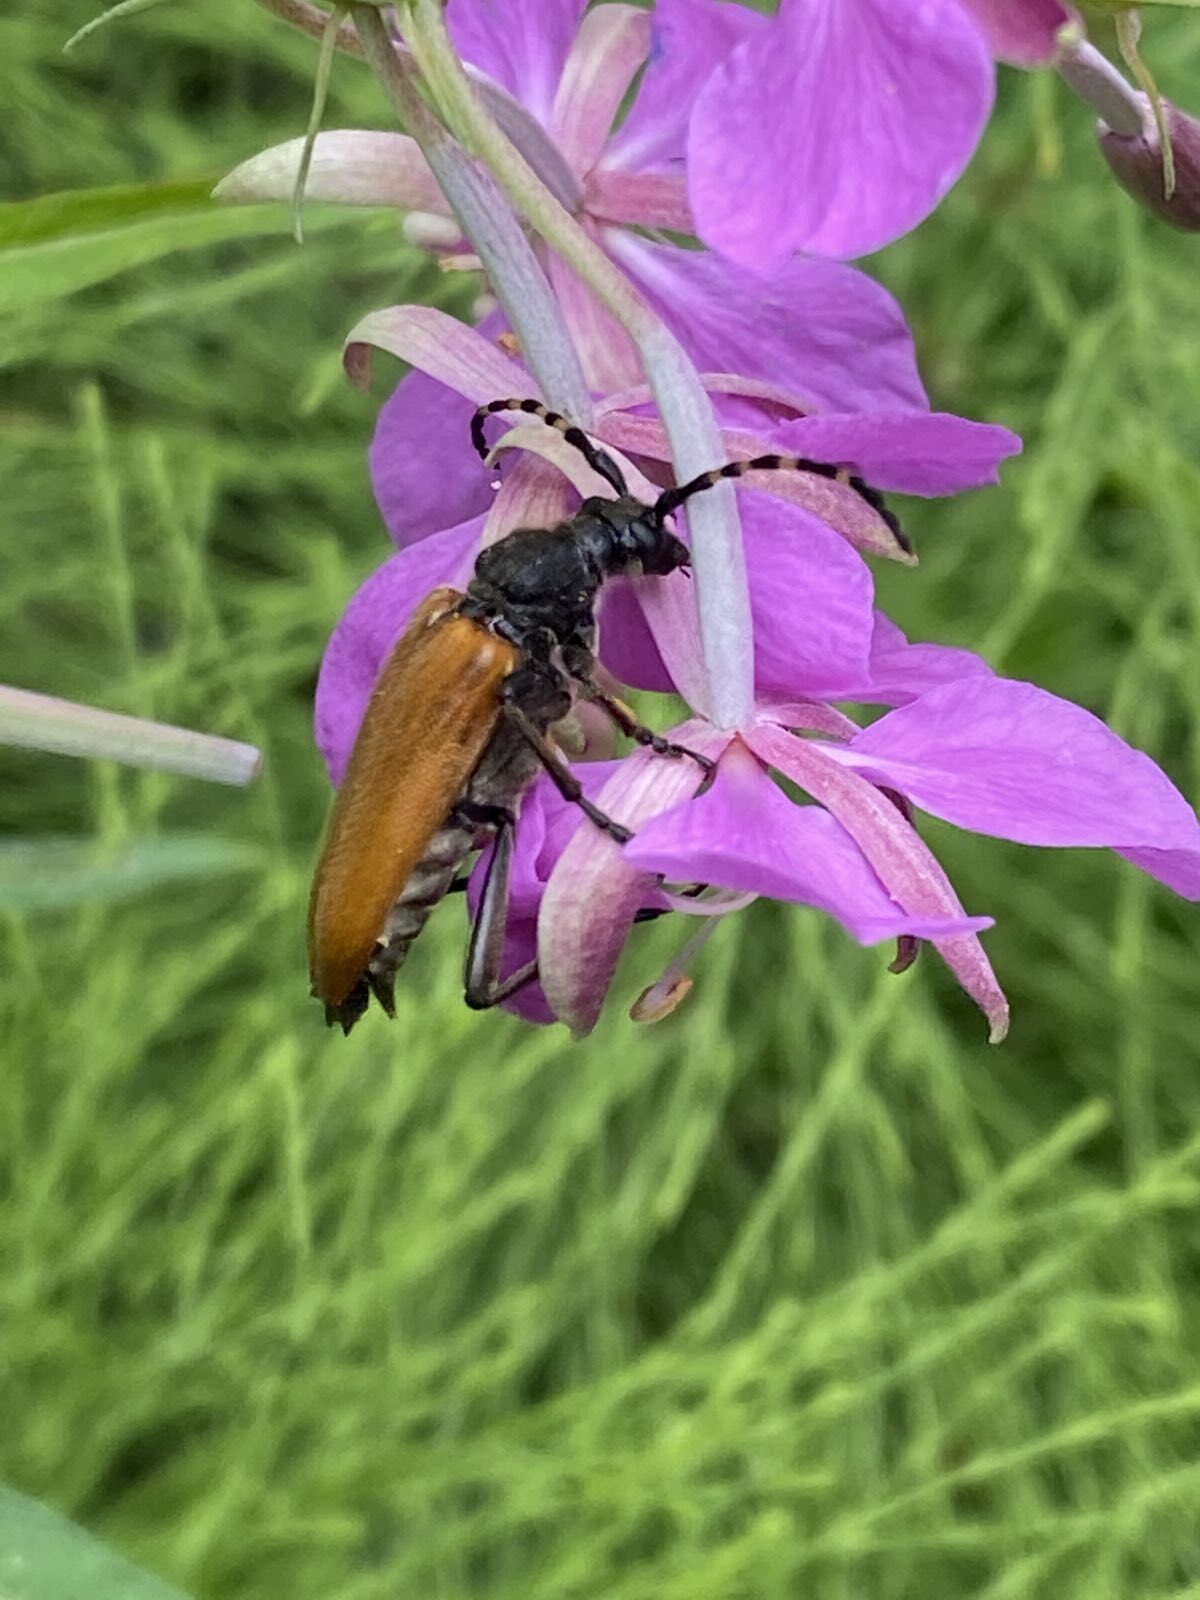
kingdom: Animalia
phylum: Arthropoda
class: Insecta
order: Coleoptera
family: Cerambycidae
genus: Stictoleptura
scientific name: Stictoleptura variicornis
